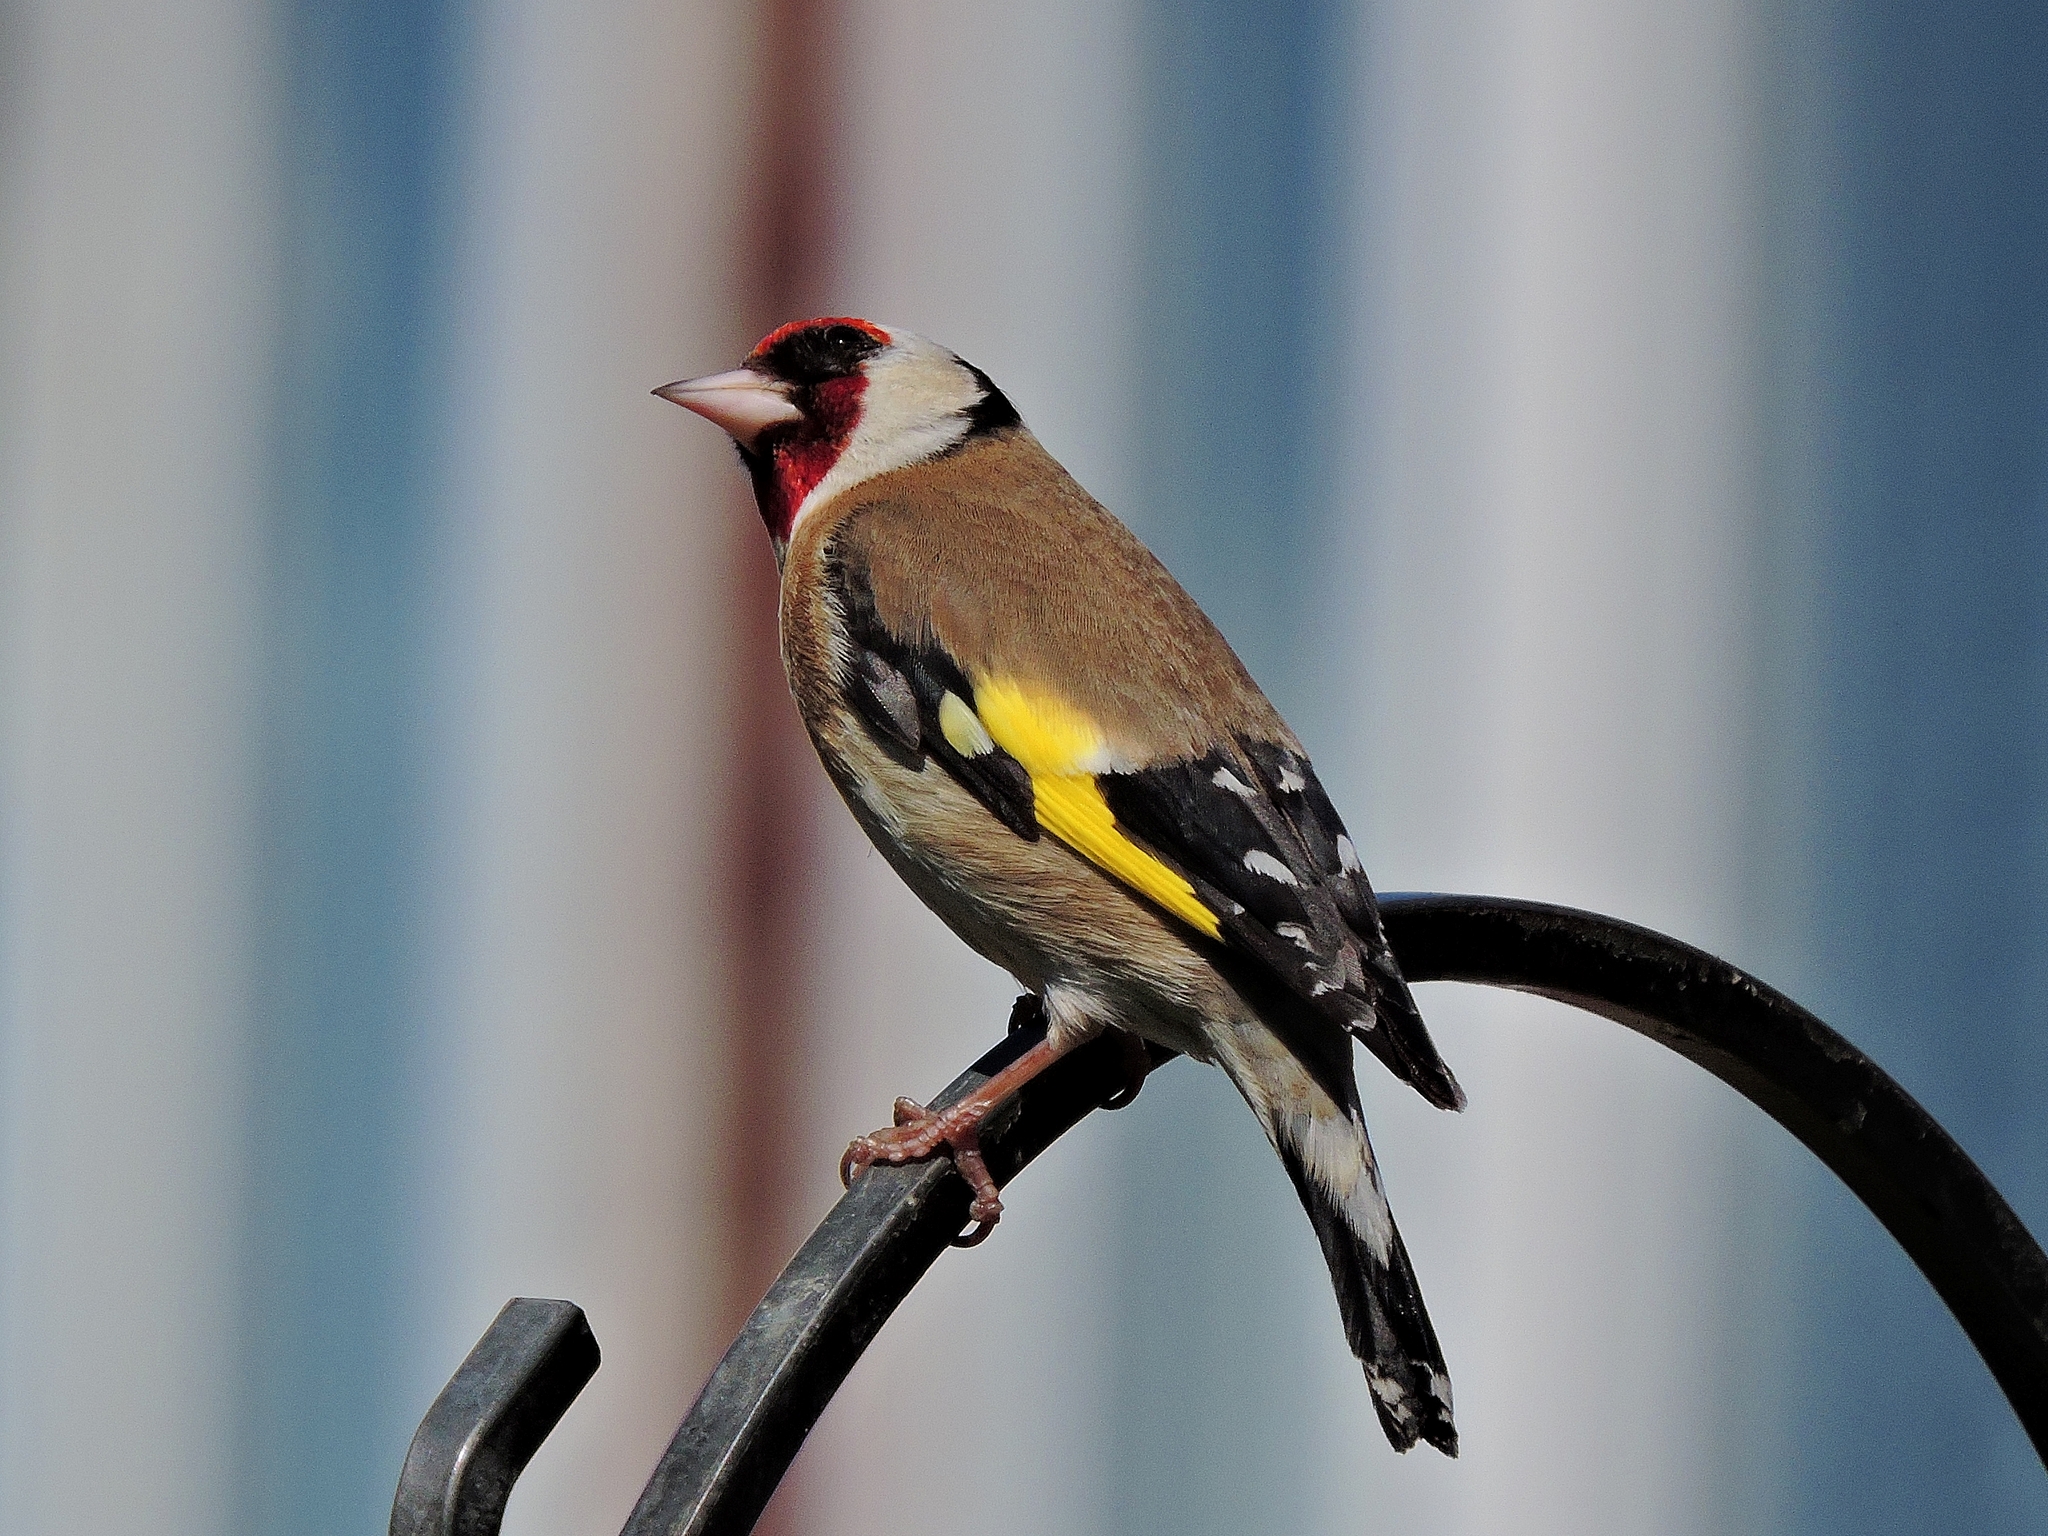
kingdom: Animalia
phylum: Chordata
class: Aves
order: Passeriformes
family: Fringillidae
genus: Carduelis
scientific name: Carduelis carduelis
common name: European goldfinch
